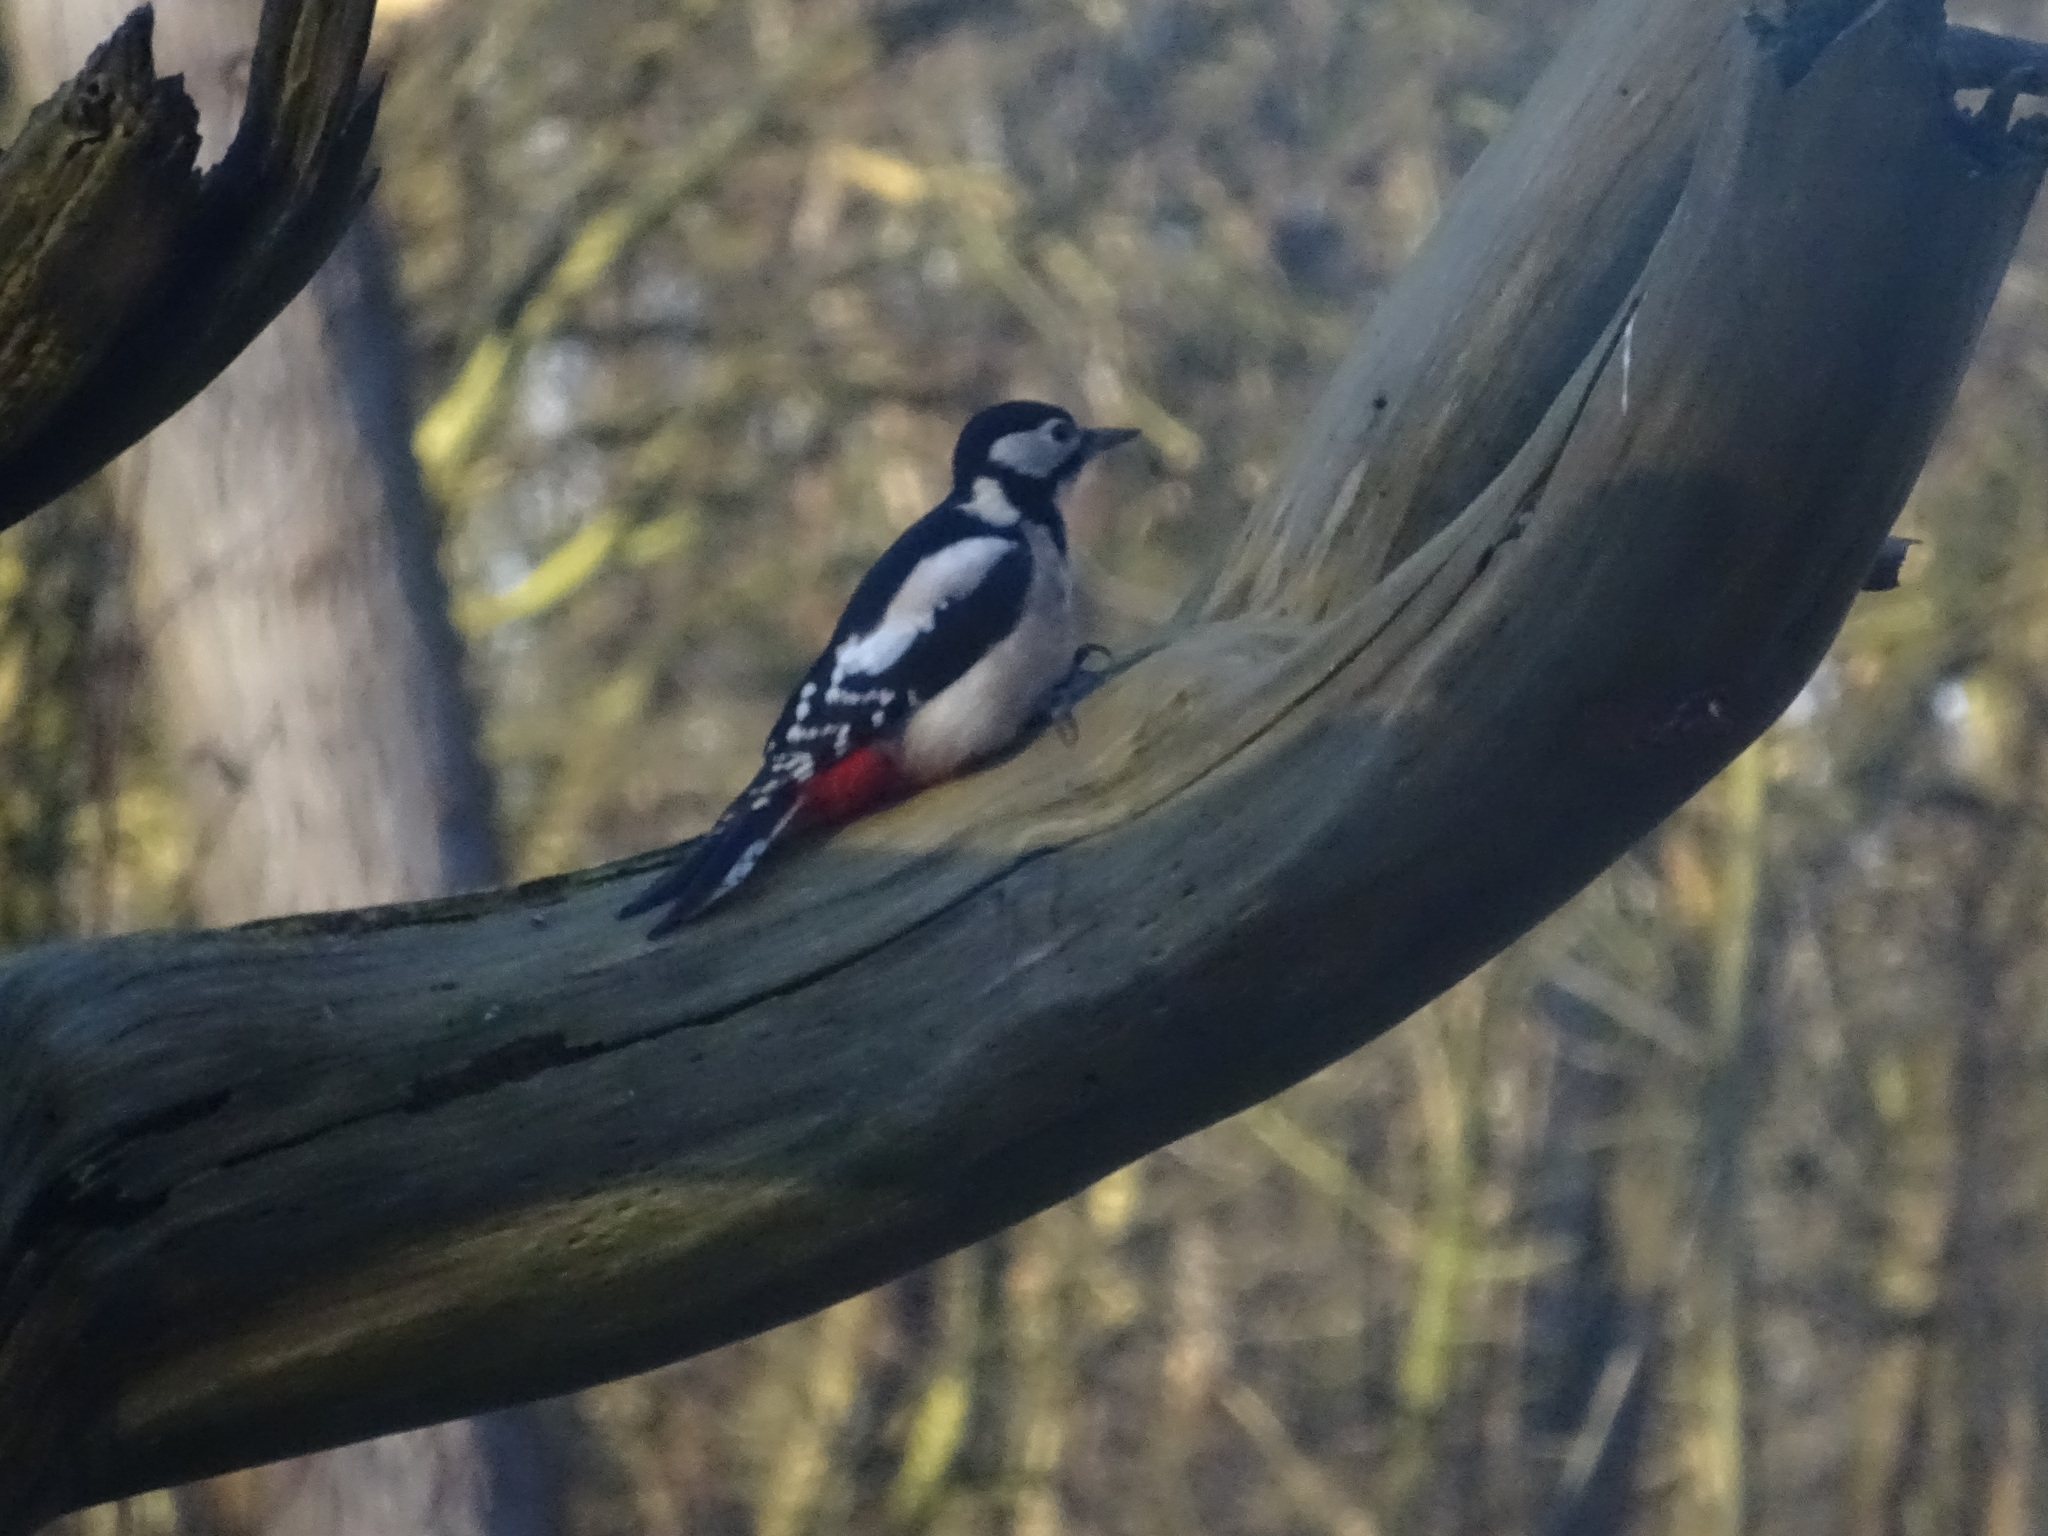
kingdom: Animalia
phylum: Chordata
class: Aves
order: Piciformes
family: Picidae
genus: Dendrocopos
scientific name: Dendrocopos major
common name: Great spotted woodpecker
